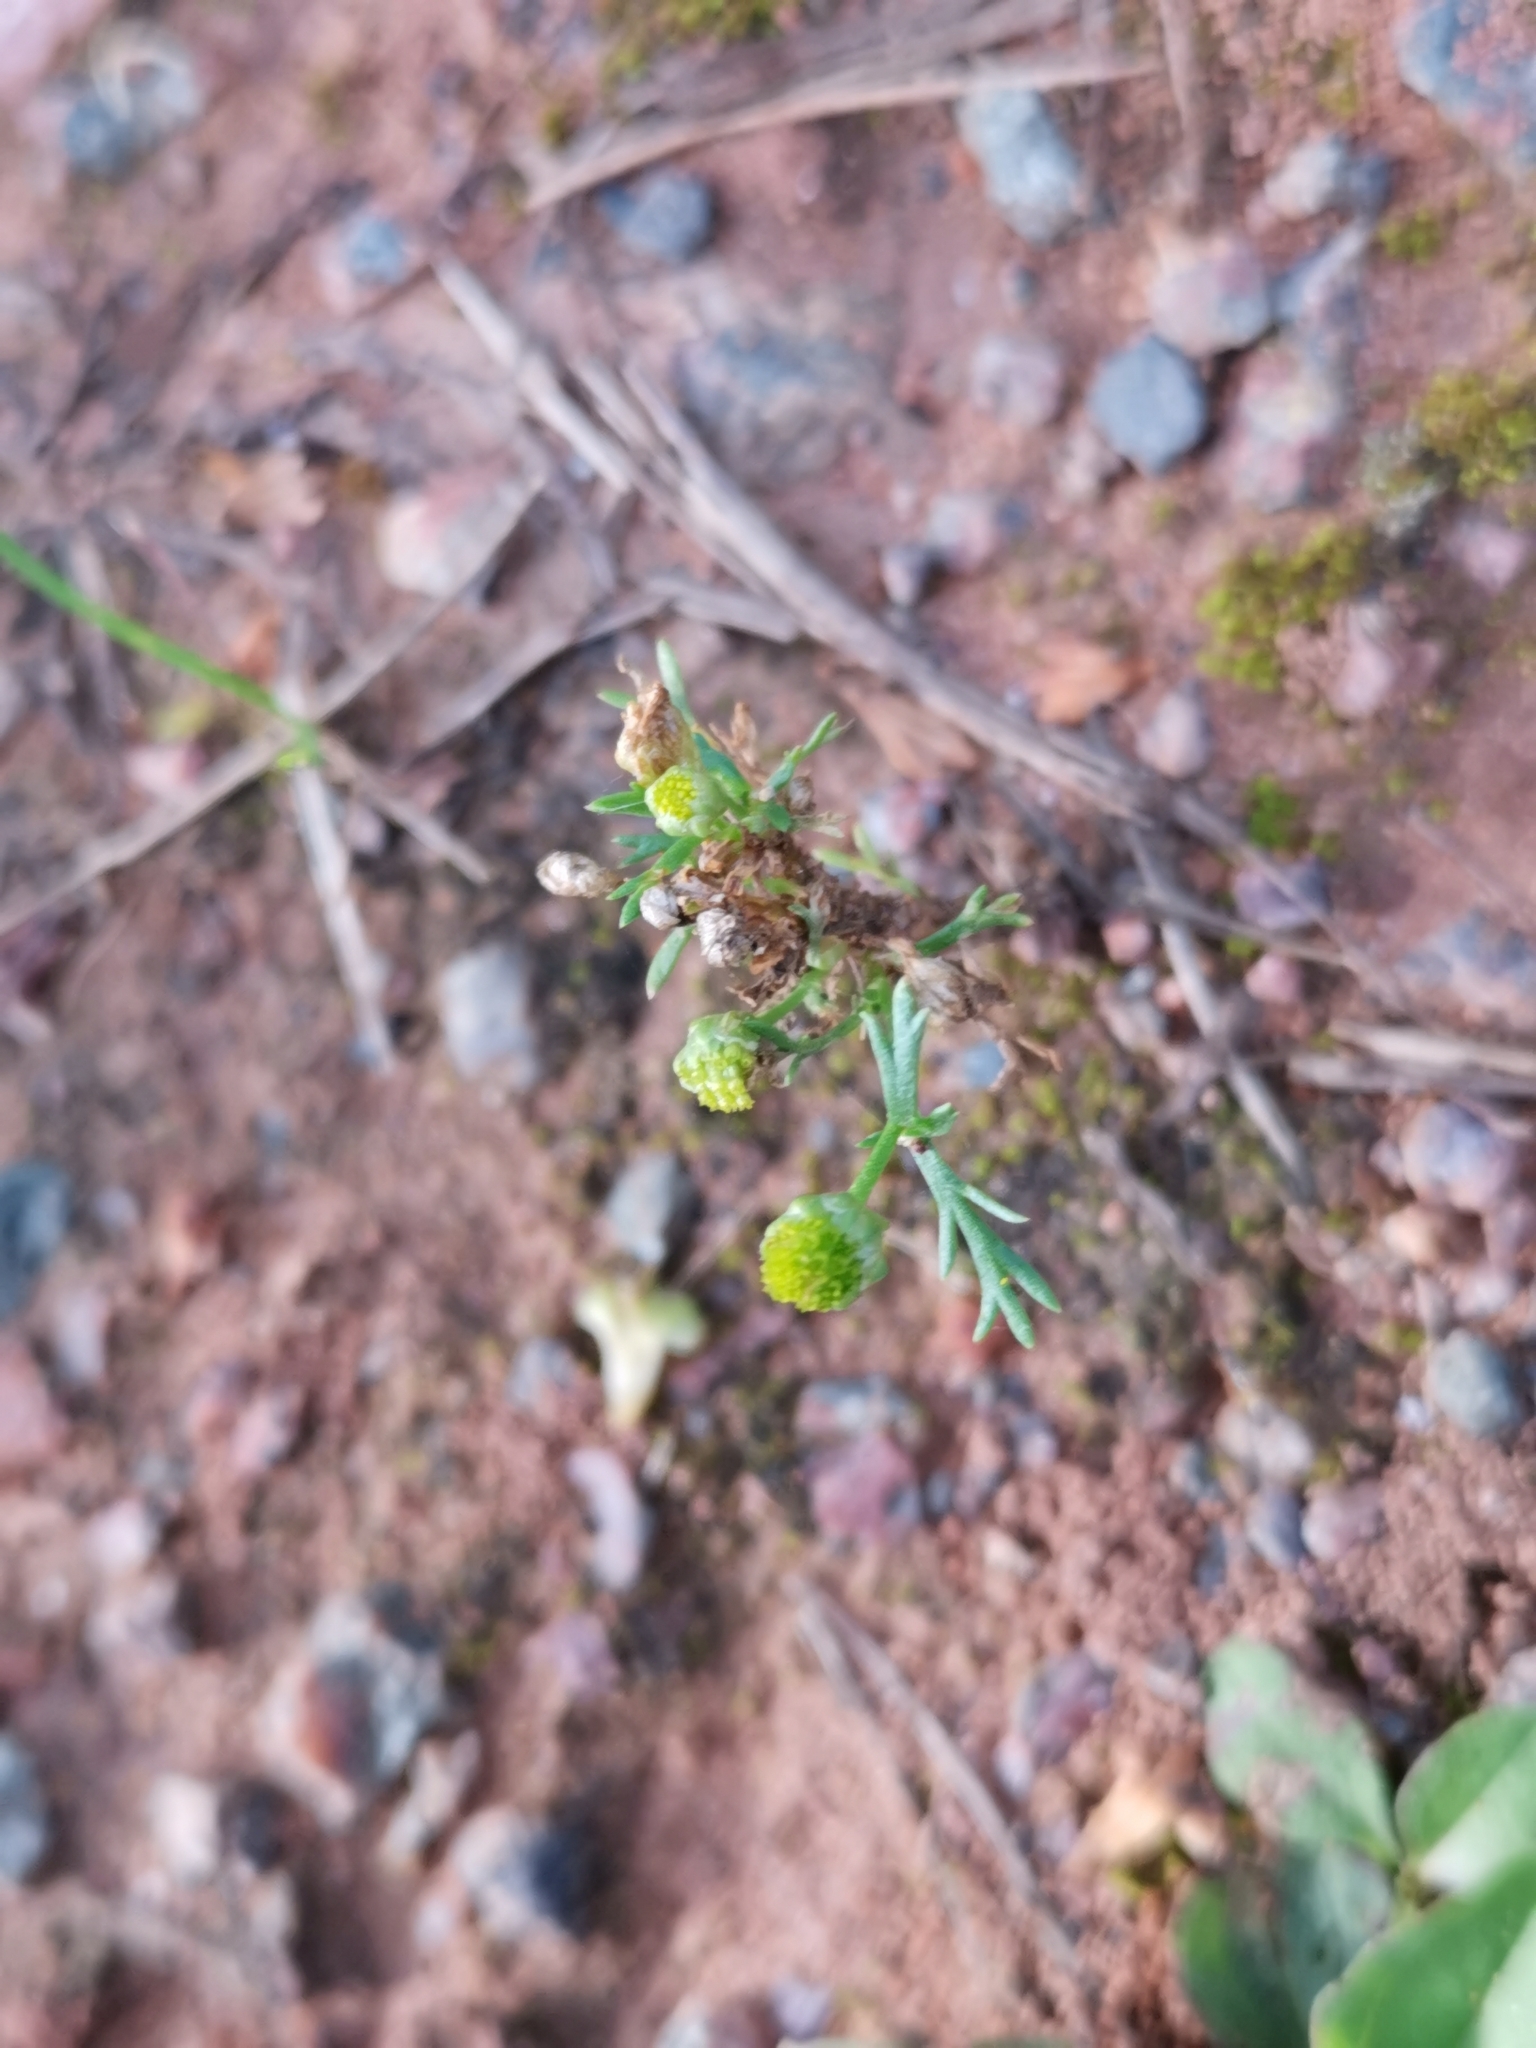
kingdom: Plantae
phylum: Tracheophyta
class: Magnoliopsida
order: Asterales
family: Asteraceae
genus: Matricaria
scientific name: Matricaria discoidea
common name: Disc mayweed
